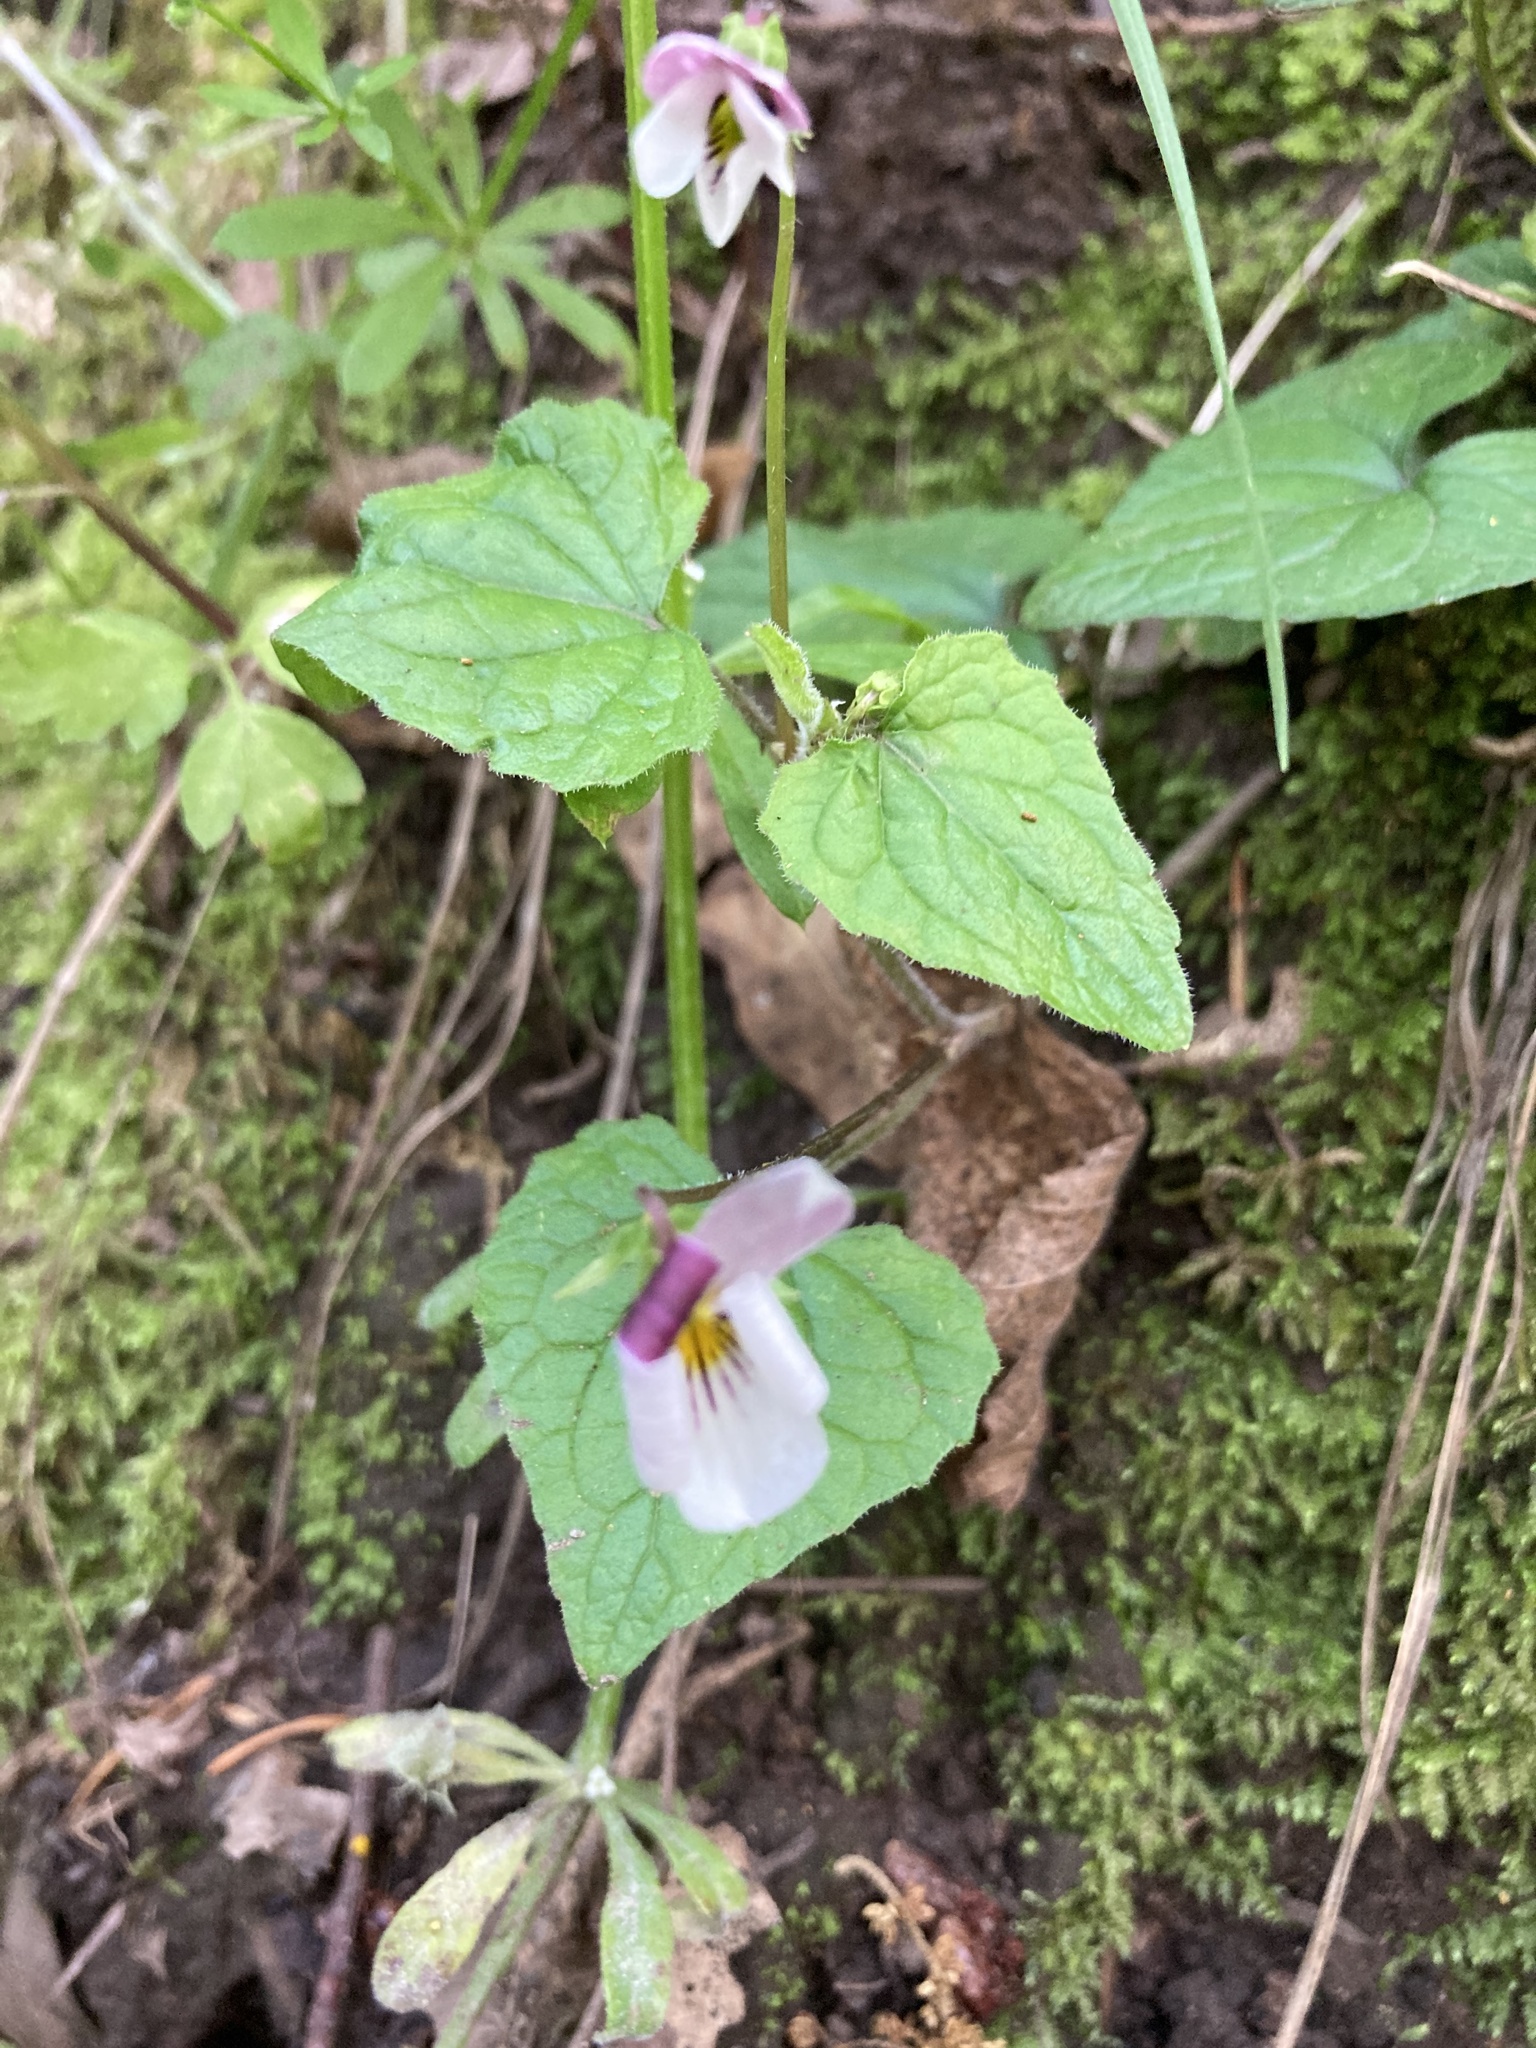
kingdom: Plantae
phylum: Tracheophyta
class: Magnoliopsida
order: Malpighiales
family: Violaceae
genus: Viola
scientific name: Viola ocellata
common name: Western heart's ease
